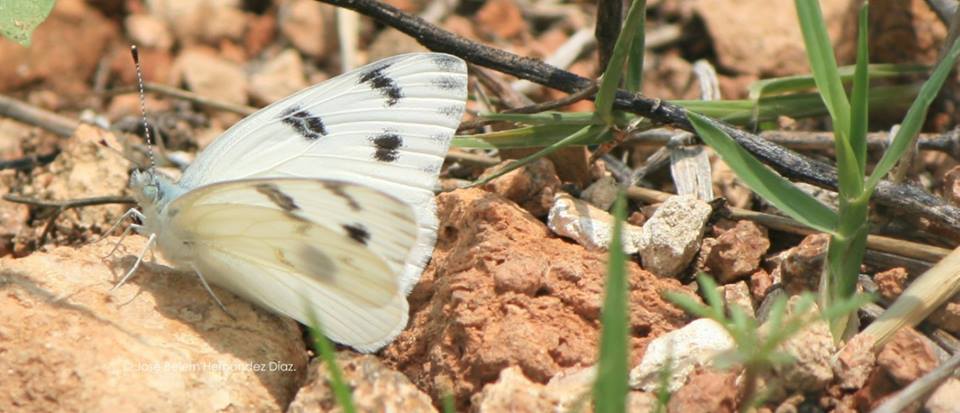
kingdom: Animalia
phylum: Arthropoda
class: Insecta
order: Lepidoptera
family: Pieridae
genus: Pontia
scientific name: Pontia protodice
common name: Checkered white
